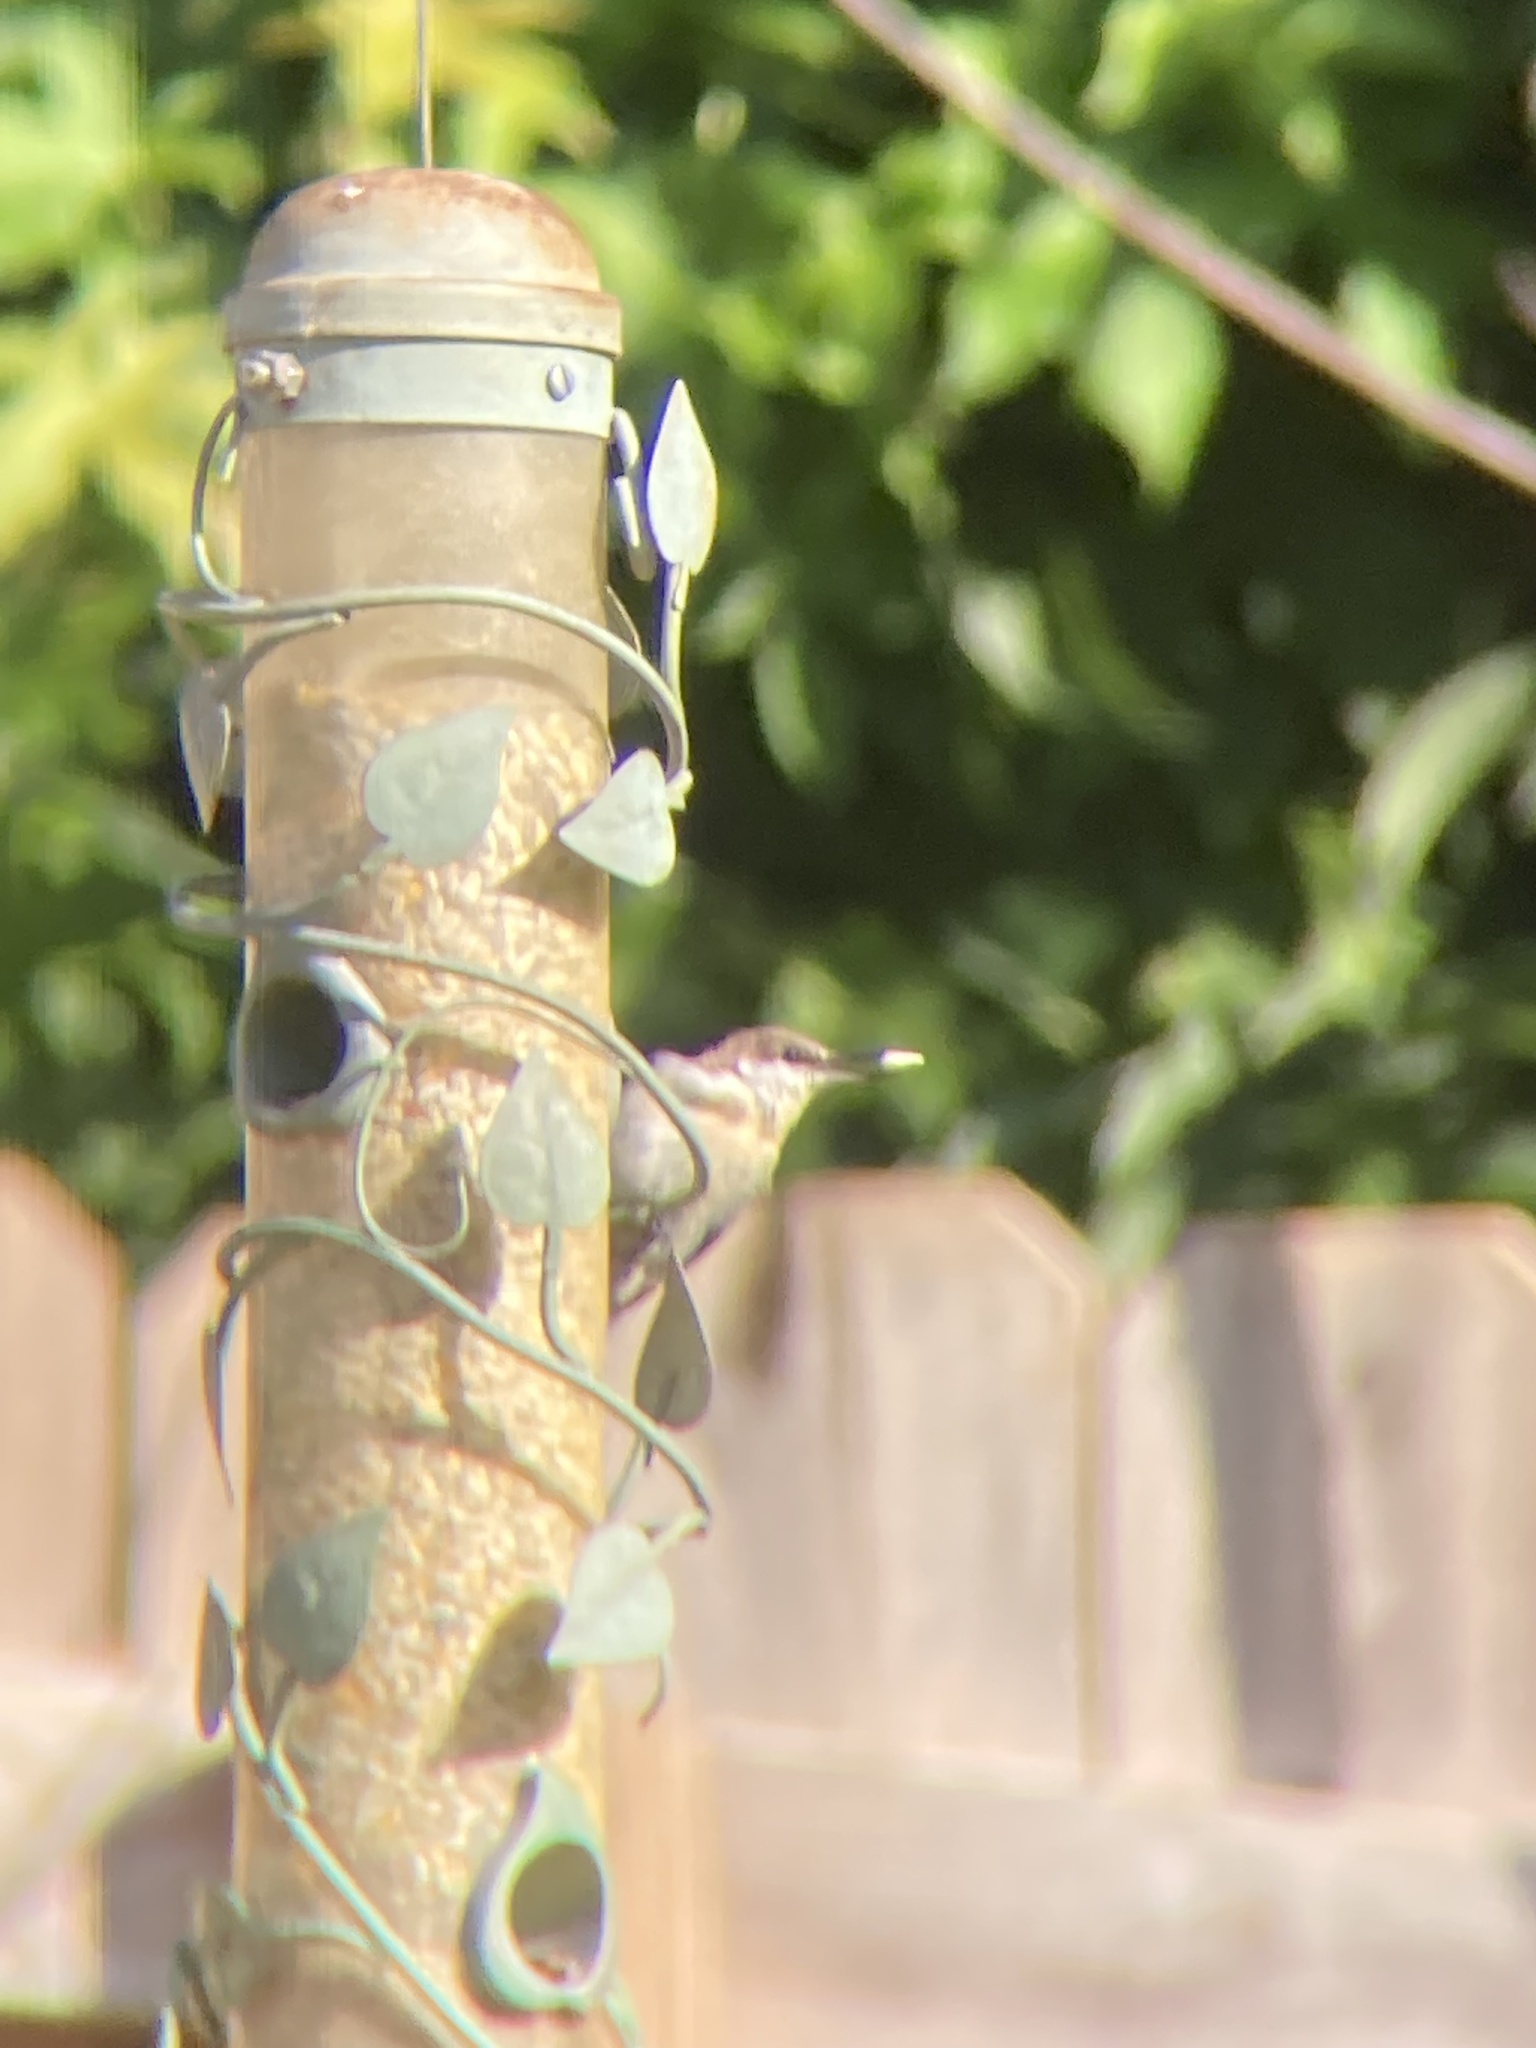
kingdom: Animalia
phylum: Chordata
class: Aves
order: Passeriformes
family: Sittidae
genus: Sitta
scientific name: Sitta pusilla
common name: Brown-headed nuthatch
